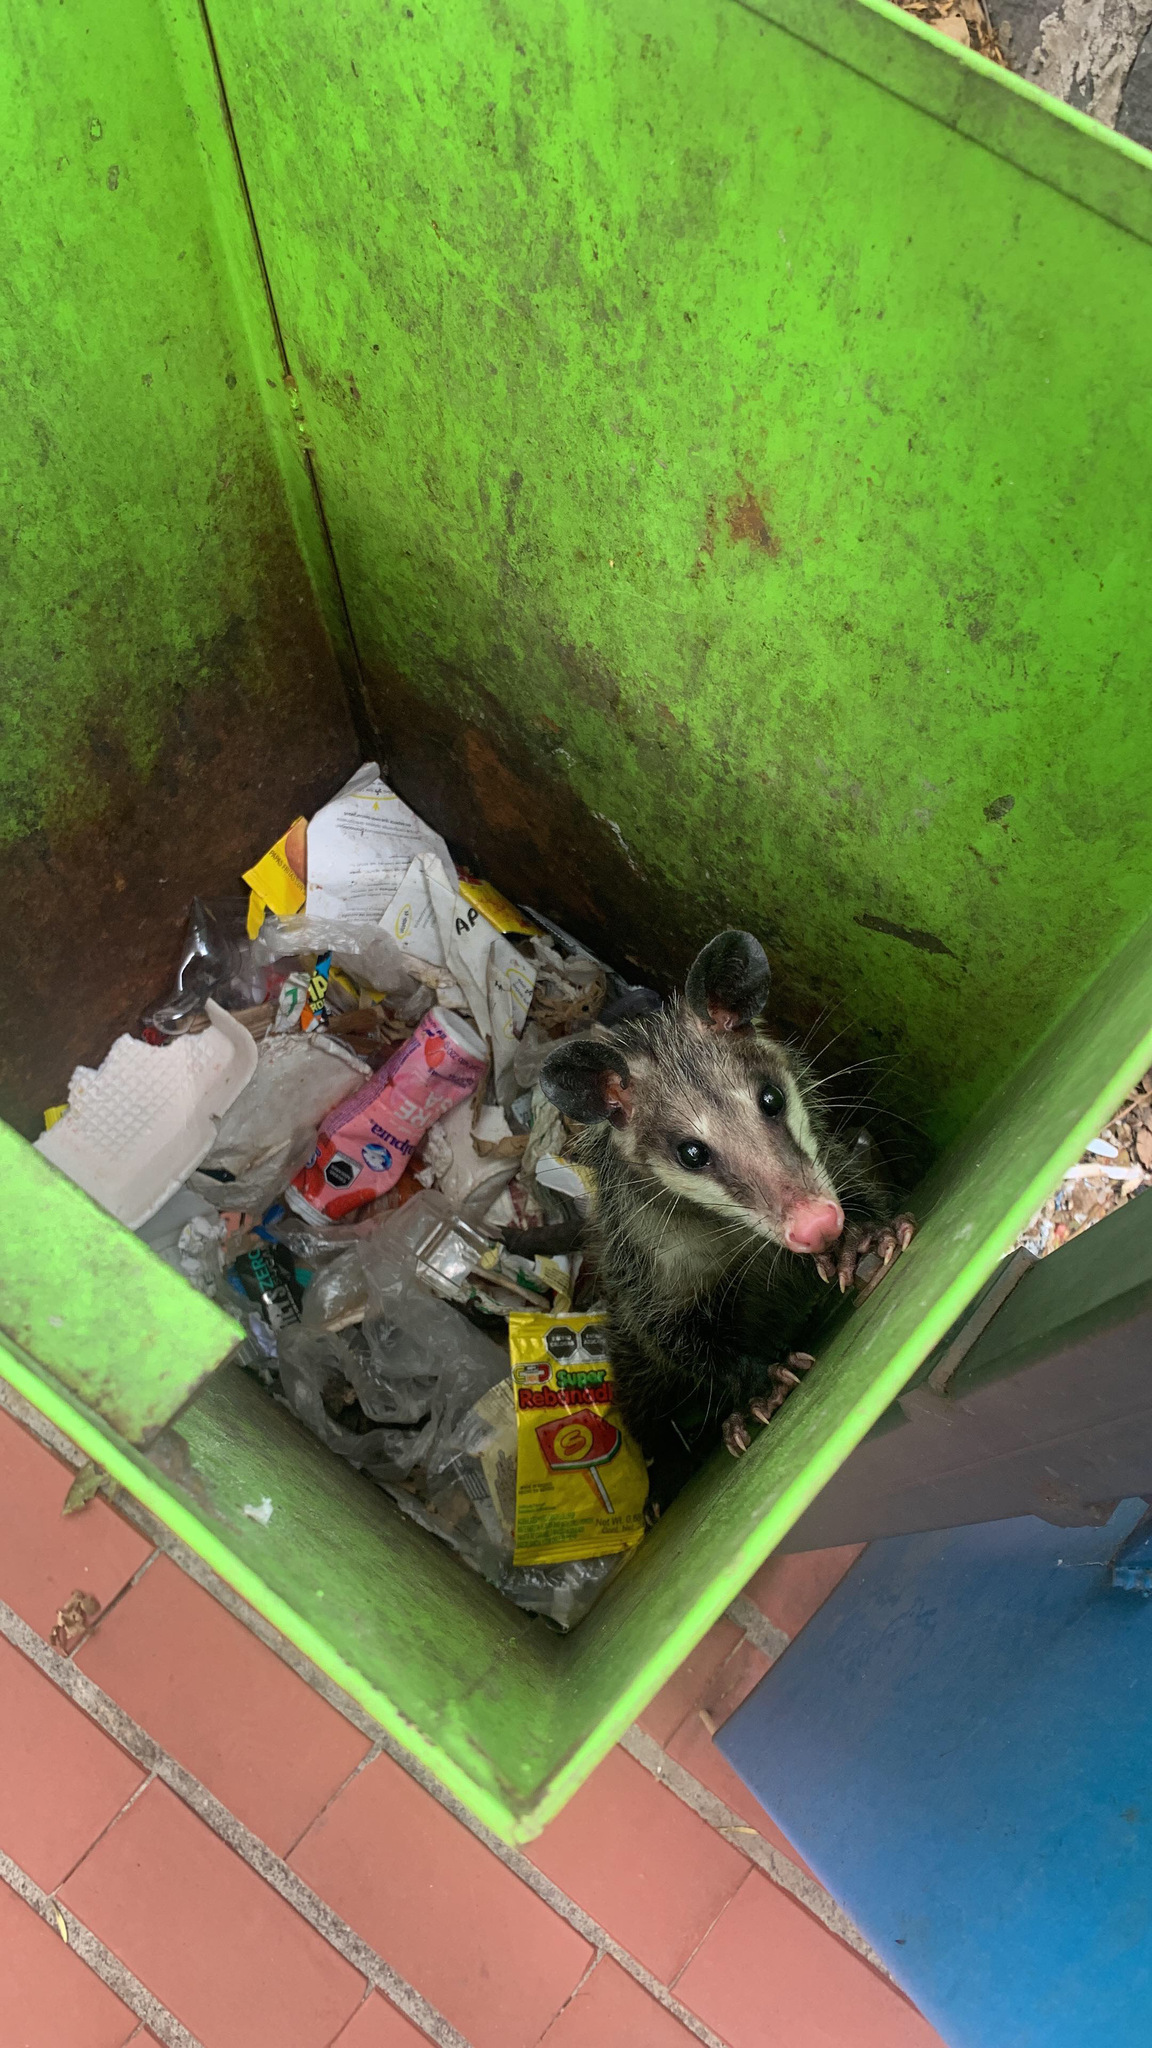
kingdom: Animalia
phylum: Chordata
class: Mammalia
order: Didelphimorphia
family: Didelphidae
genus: Didelphis
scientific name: Didelphis virginiana
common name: Virginia opossum
